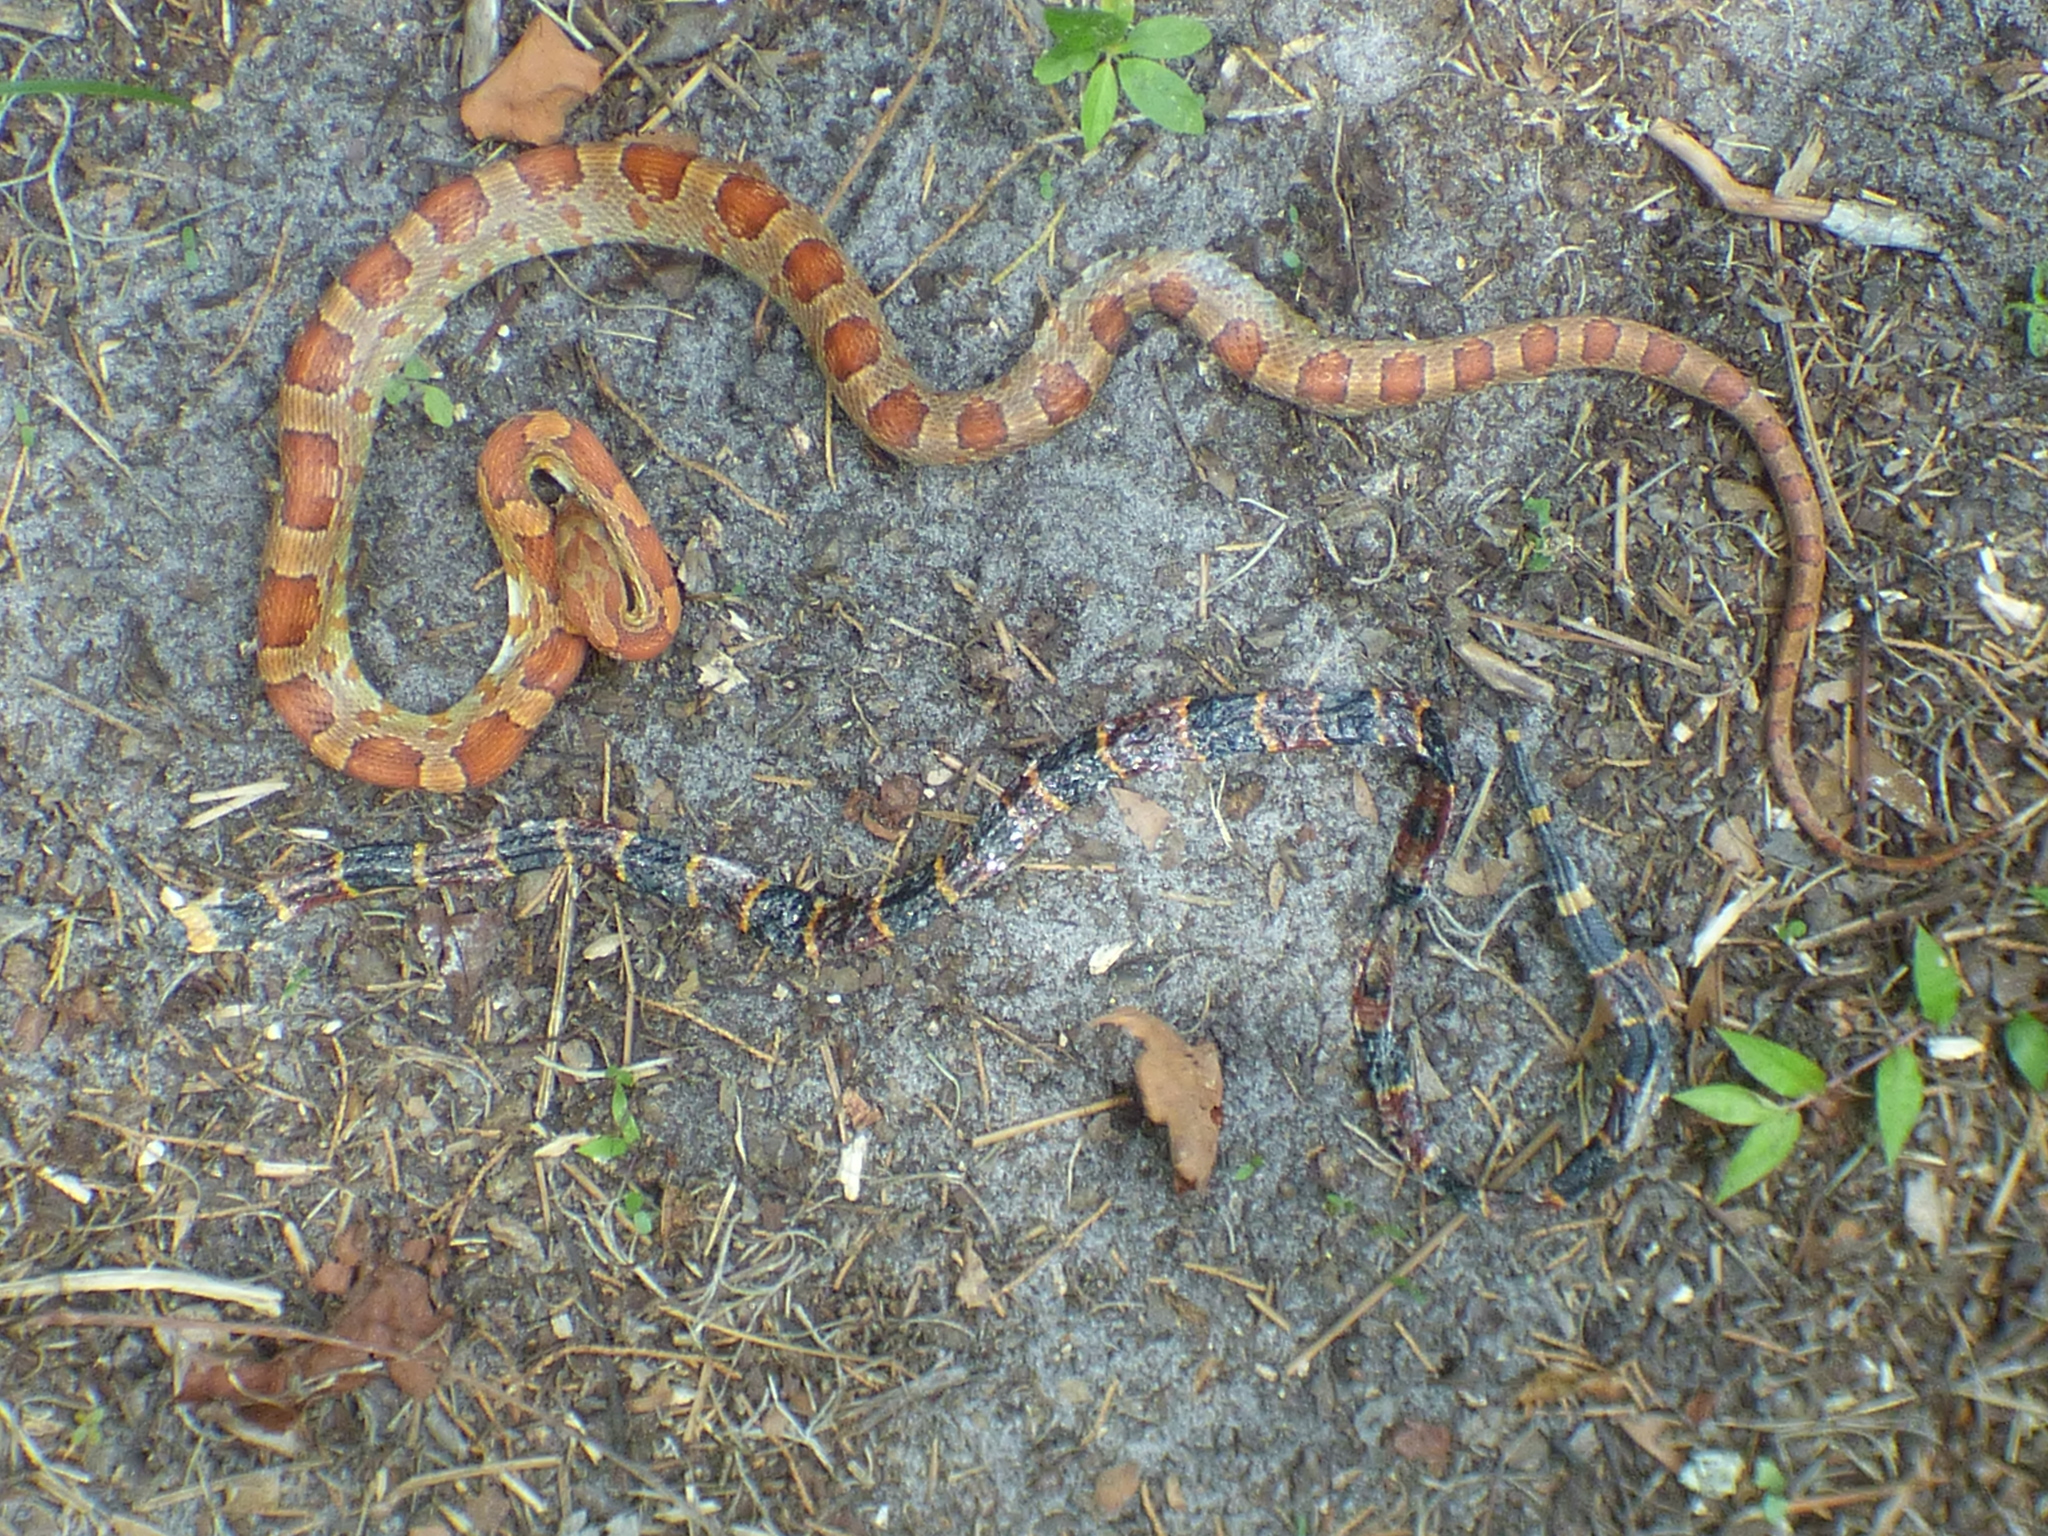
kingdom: Animalia
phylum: Chordata
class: Squamata
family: Colubridae
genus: Pantherophis
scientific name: Pantherophis guttatus
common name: Red cornsnake
